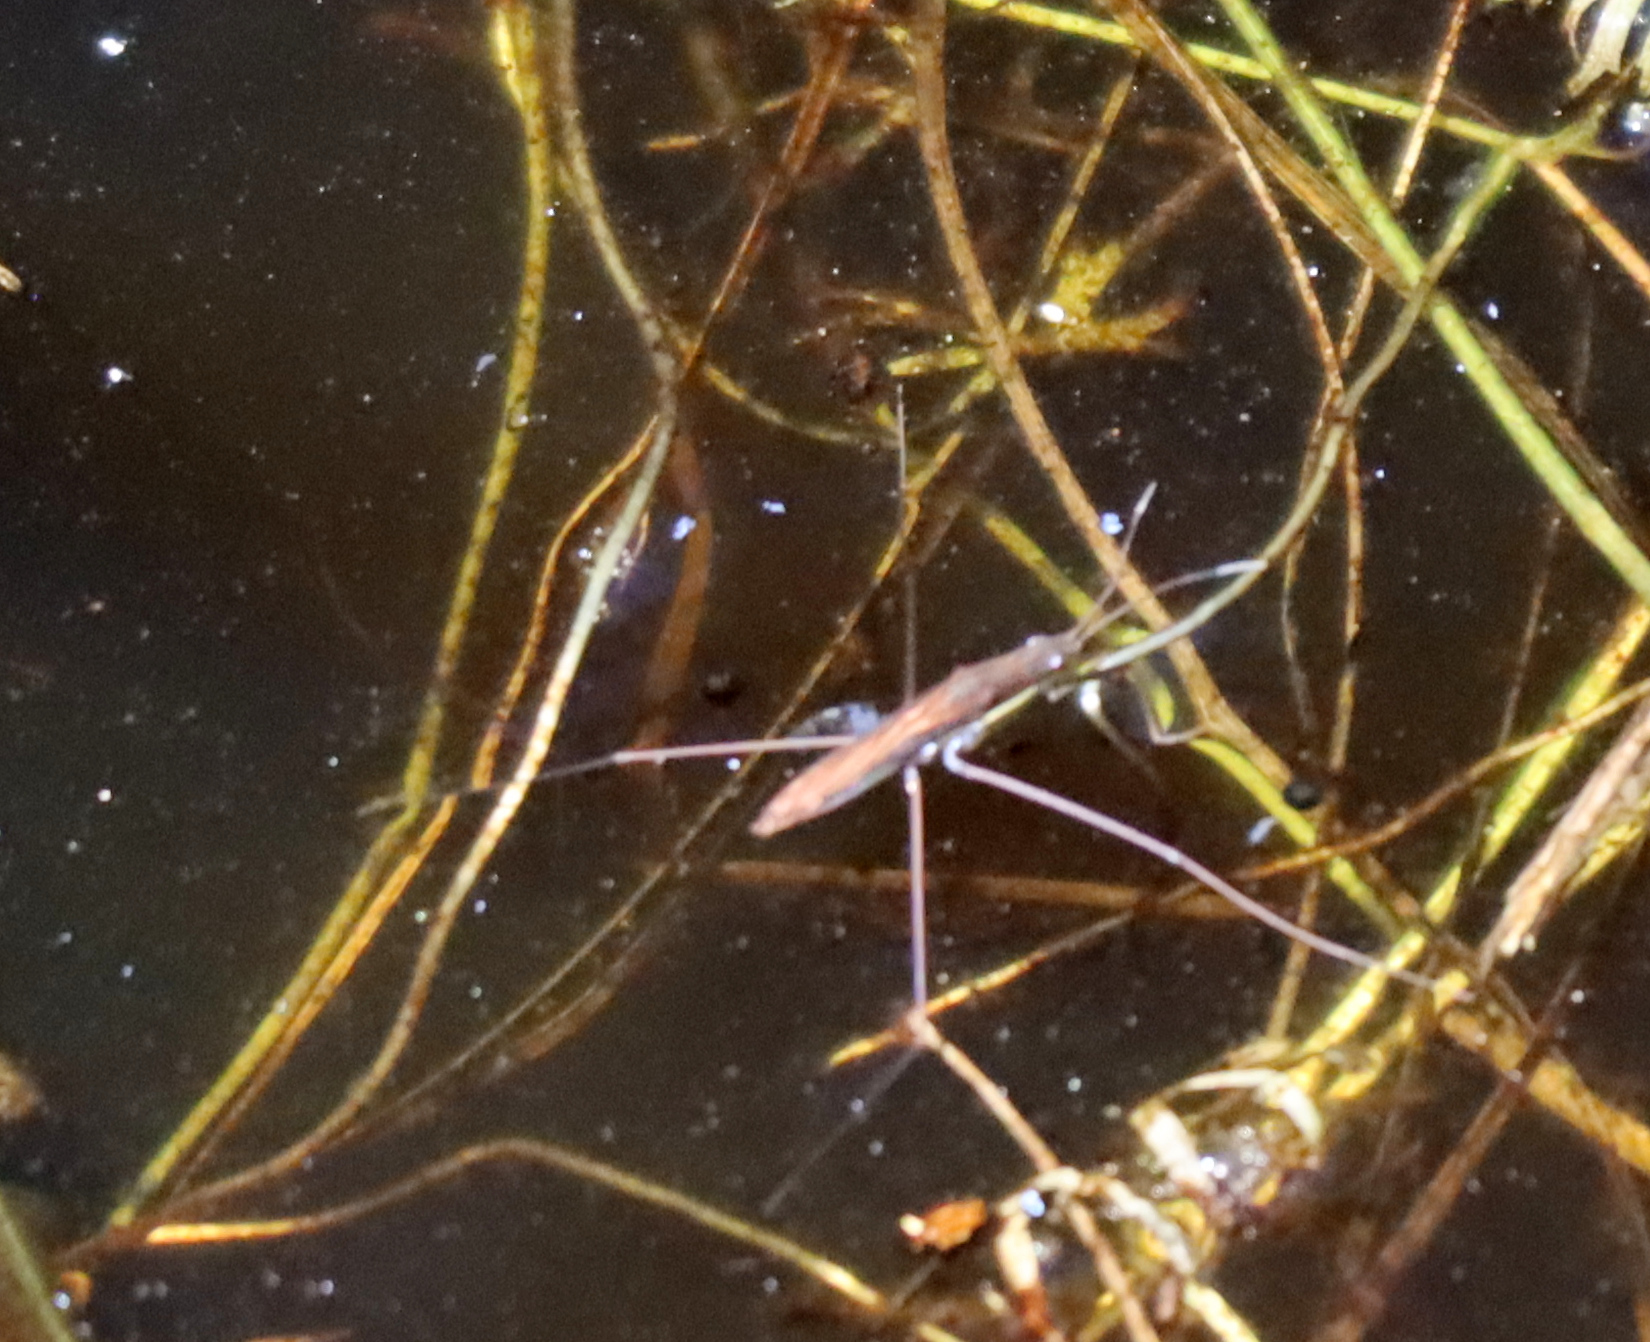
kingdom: Animalia
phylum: Arthropoda
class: Insecta
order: Hemiptera
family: Gerridae
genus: Limnoporus
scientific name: Limnoporus dissortis
